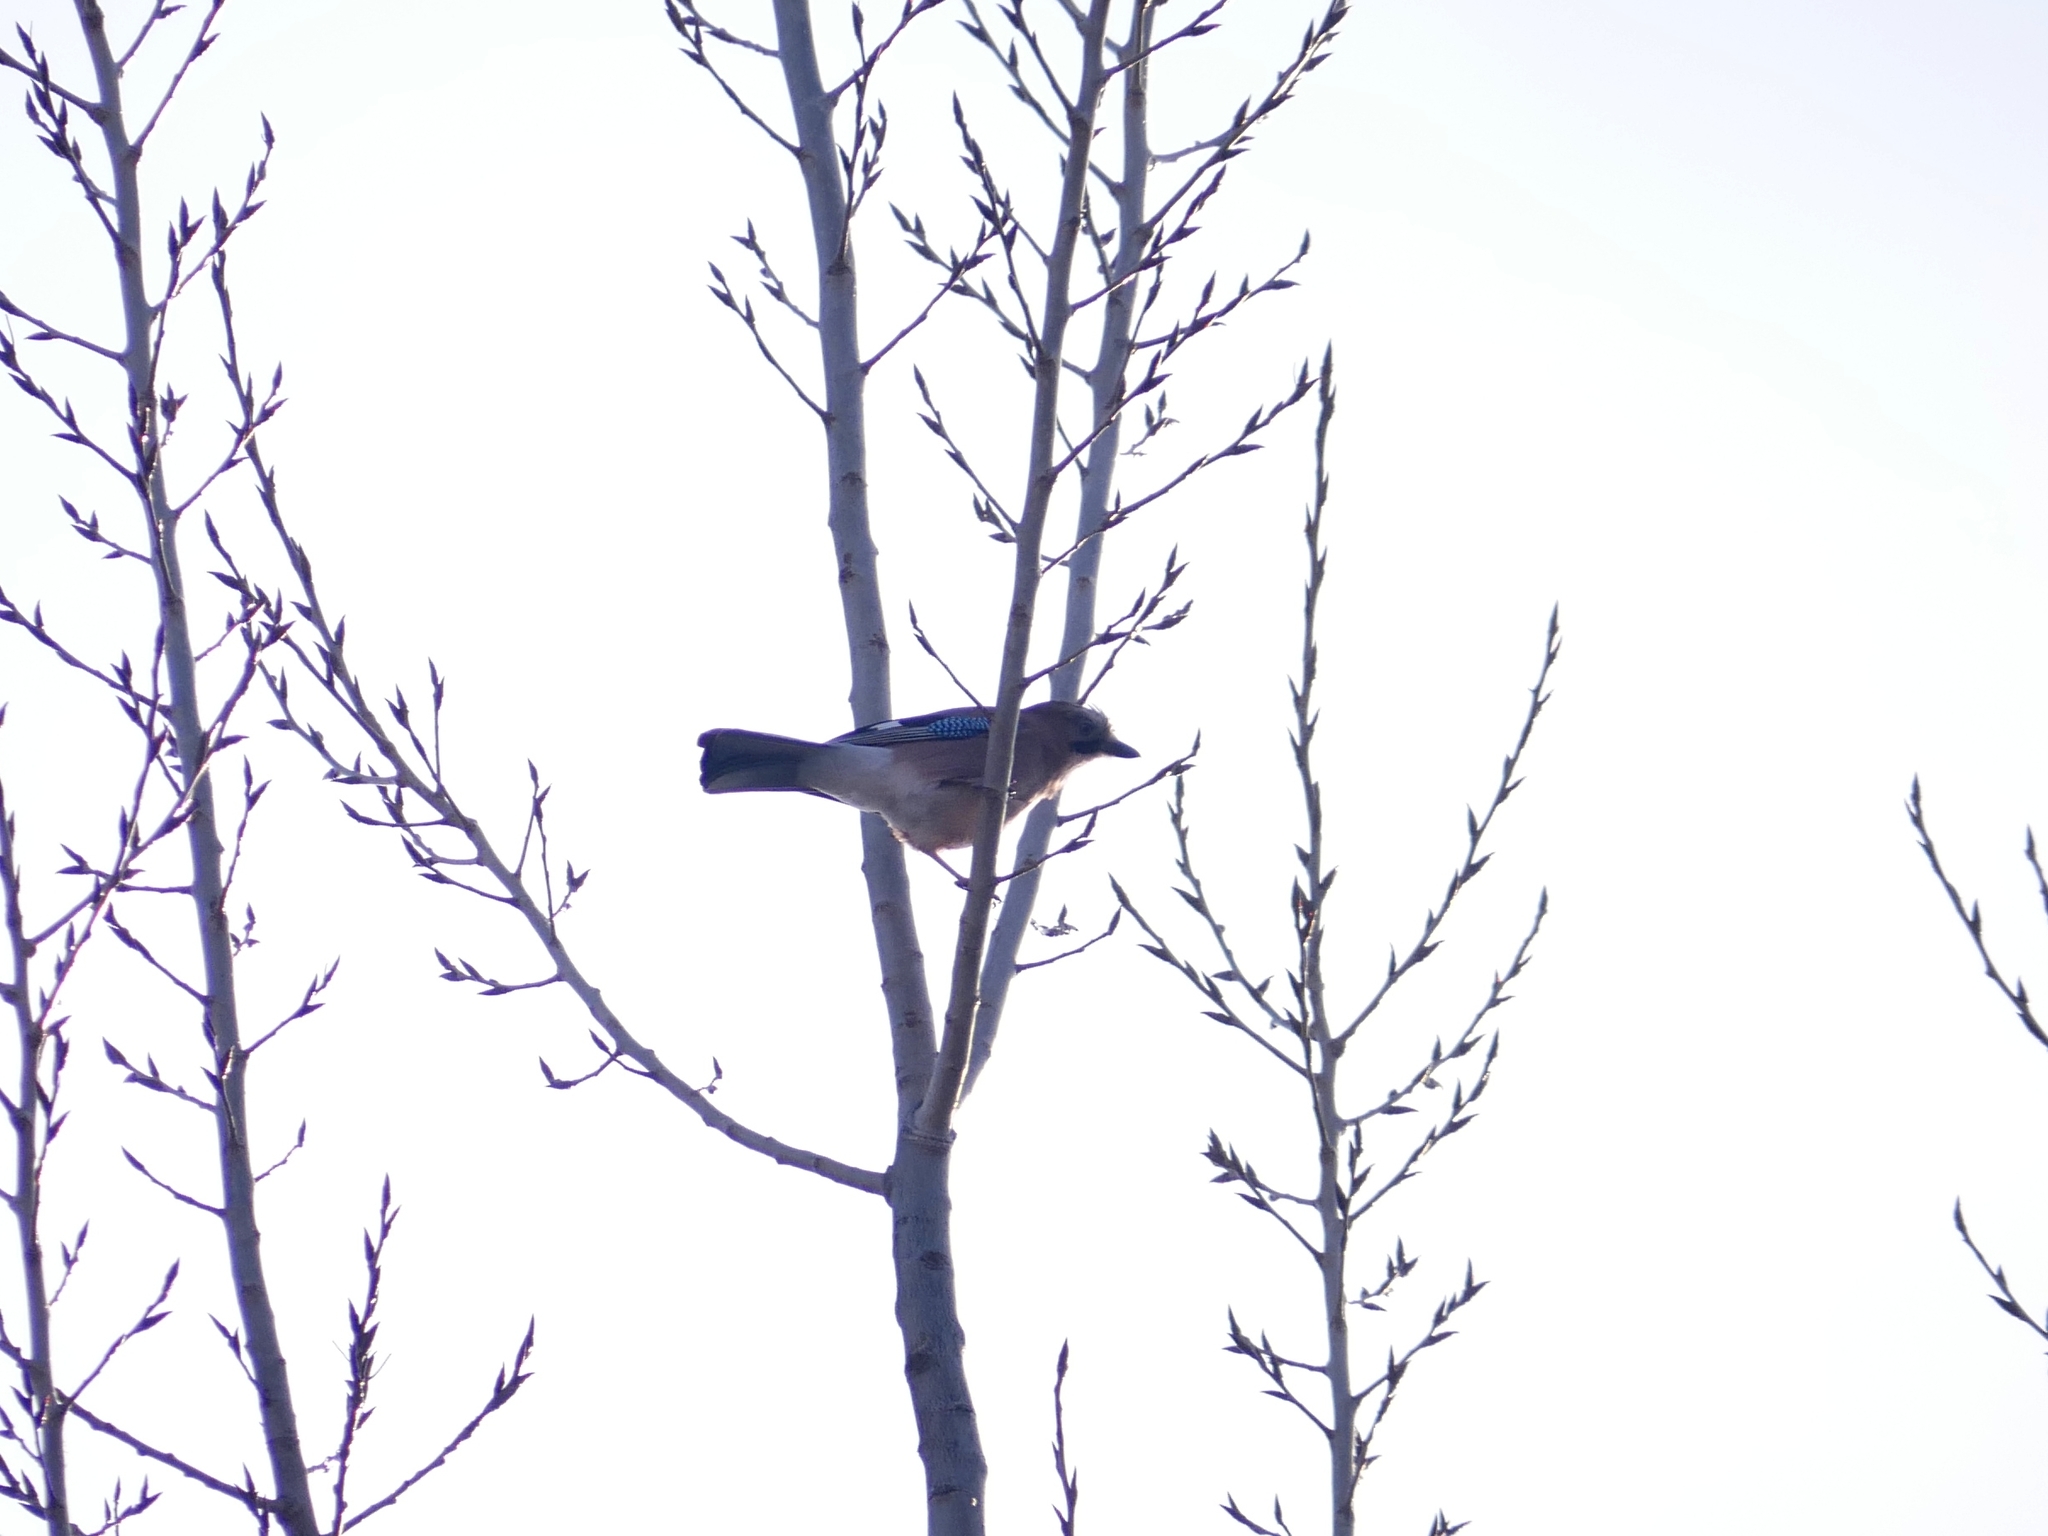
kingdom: Animalia
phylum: Chordata
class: Aves
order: Passeriformes
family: Corvidae
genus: Garrulus
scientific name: Garrulus glandarius
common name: Eurasian jay
